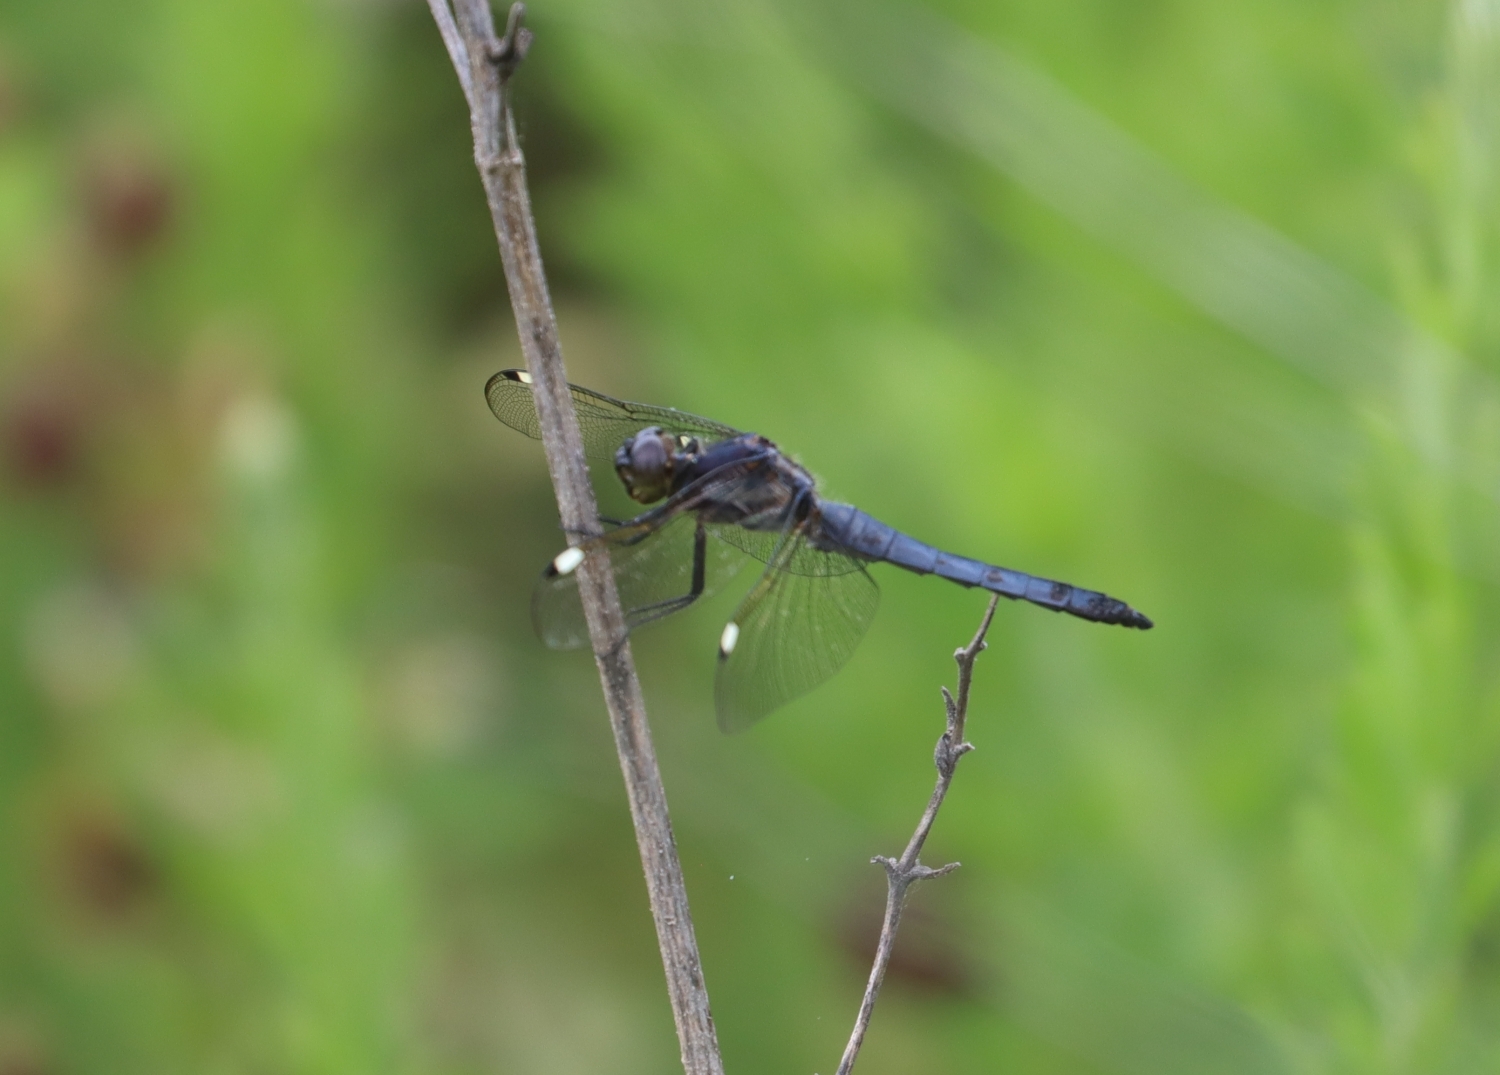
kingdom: Animalia
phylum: Arthropoda
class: Insecta
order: Odonata
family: Libellulidae
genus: Libellula
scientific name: Libellula cyanea
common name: Spangled skimmer
